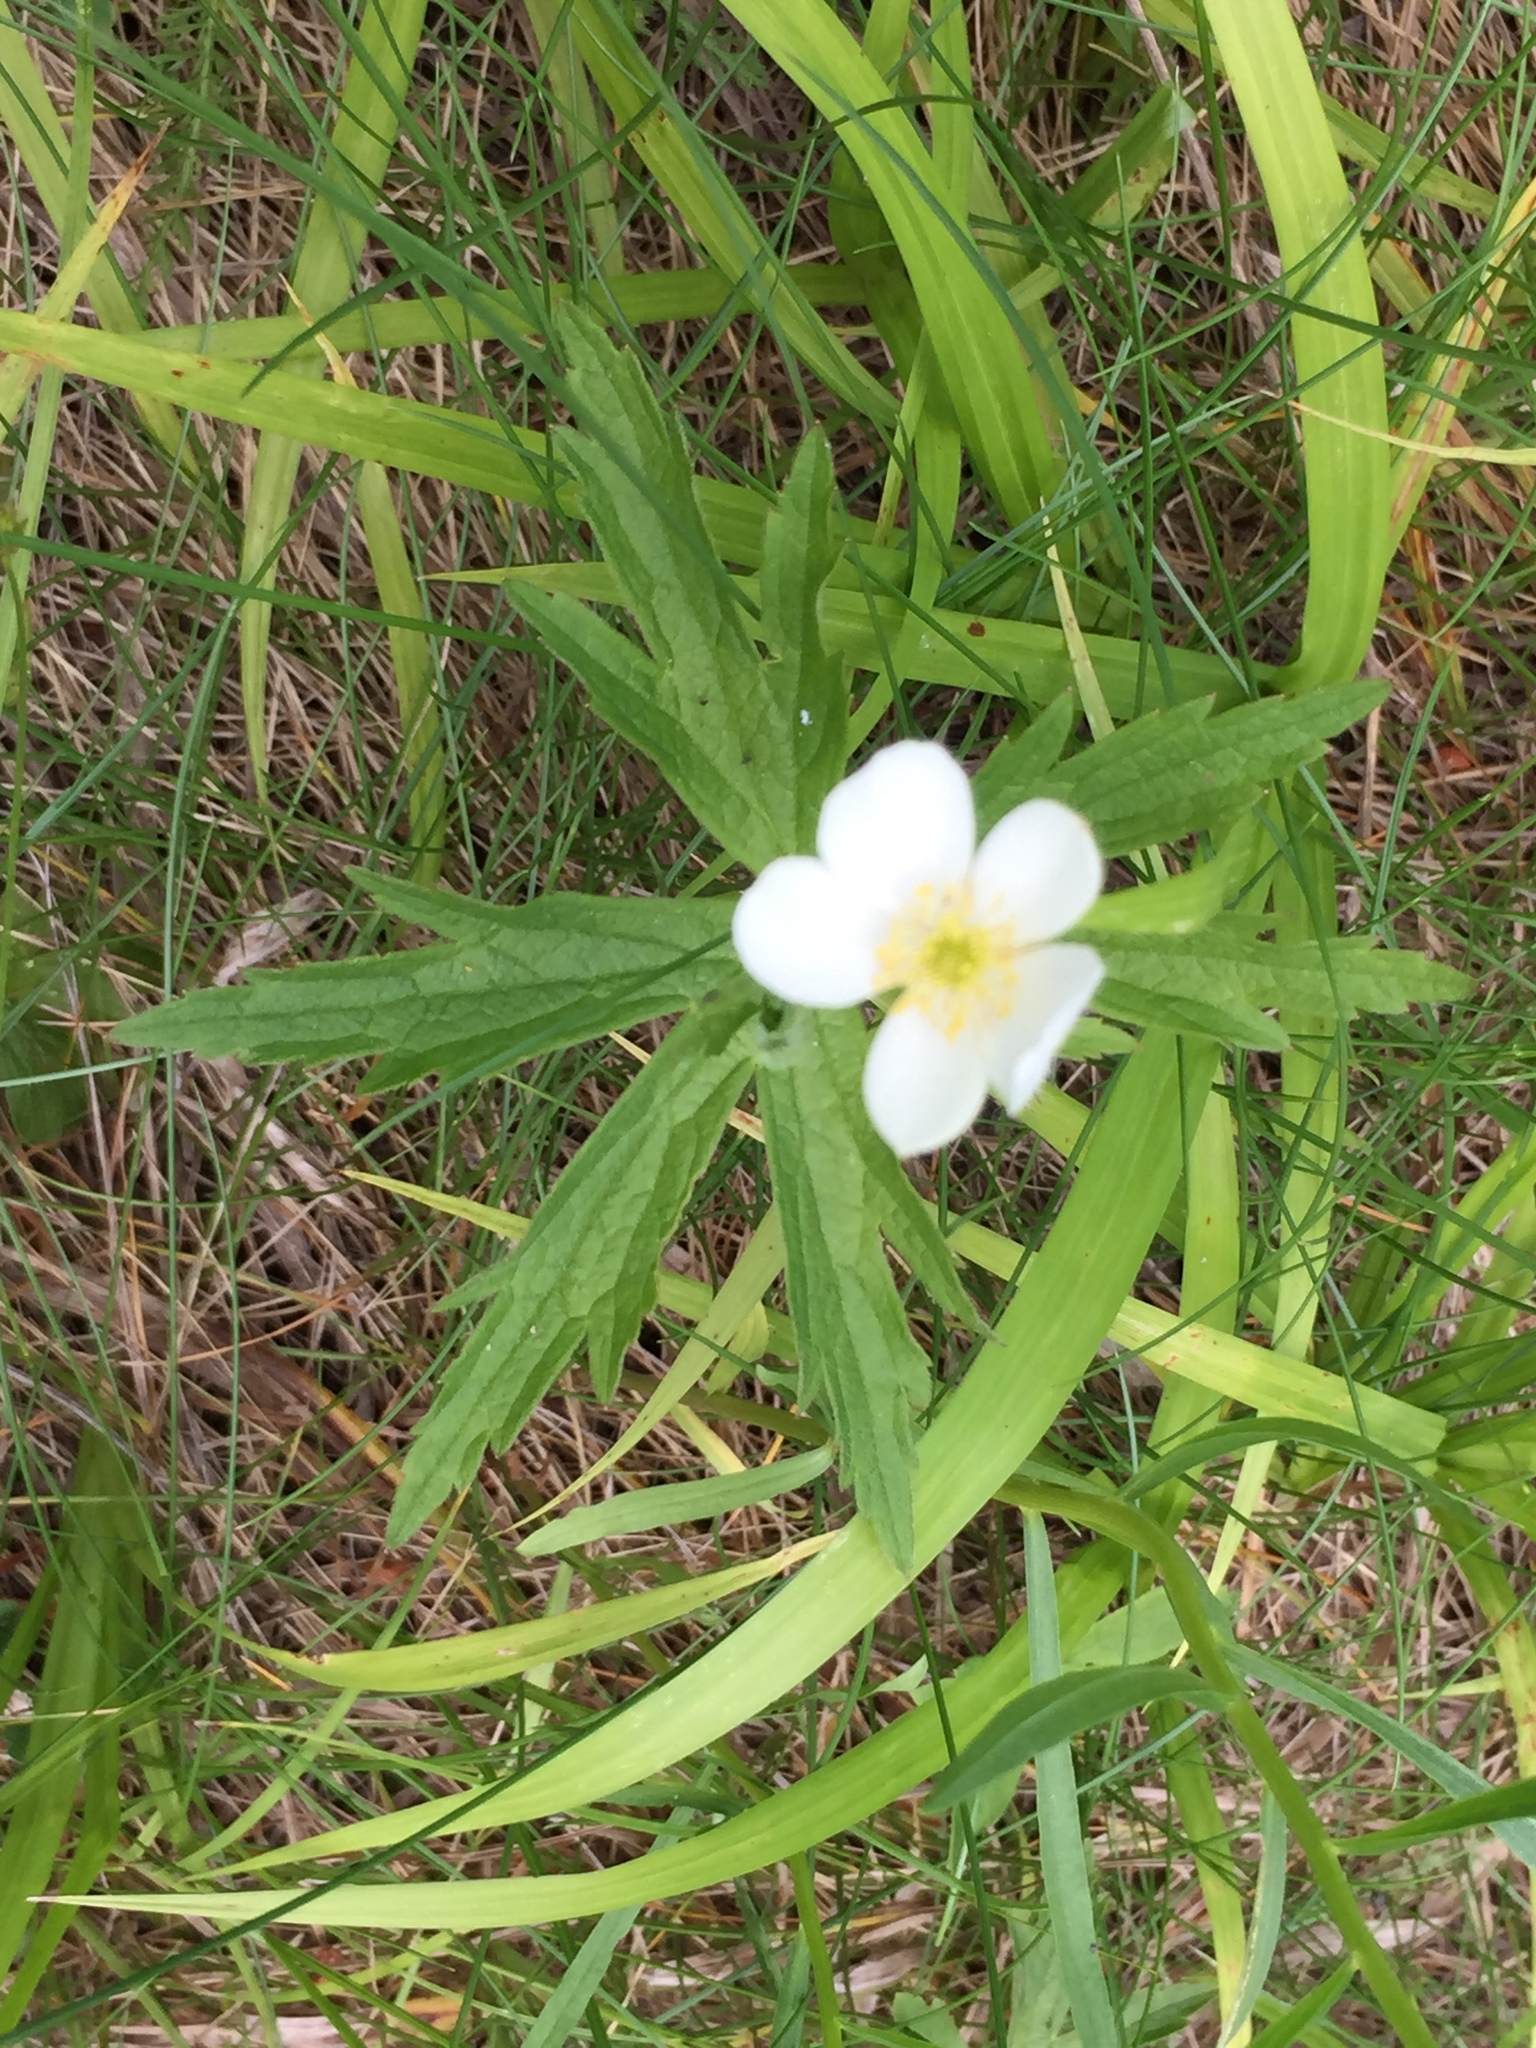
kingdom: Plantae
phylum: Tracheophyta
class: Magnoliopsida
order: Ranunculales
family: Ranunculaceae
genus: Anemonastrum
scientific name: Anemonastrum canadense
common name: Canada anemone
